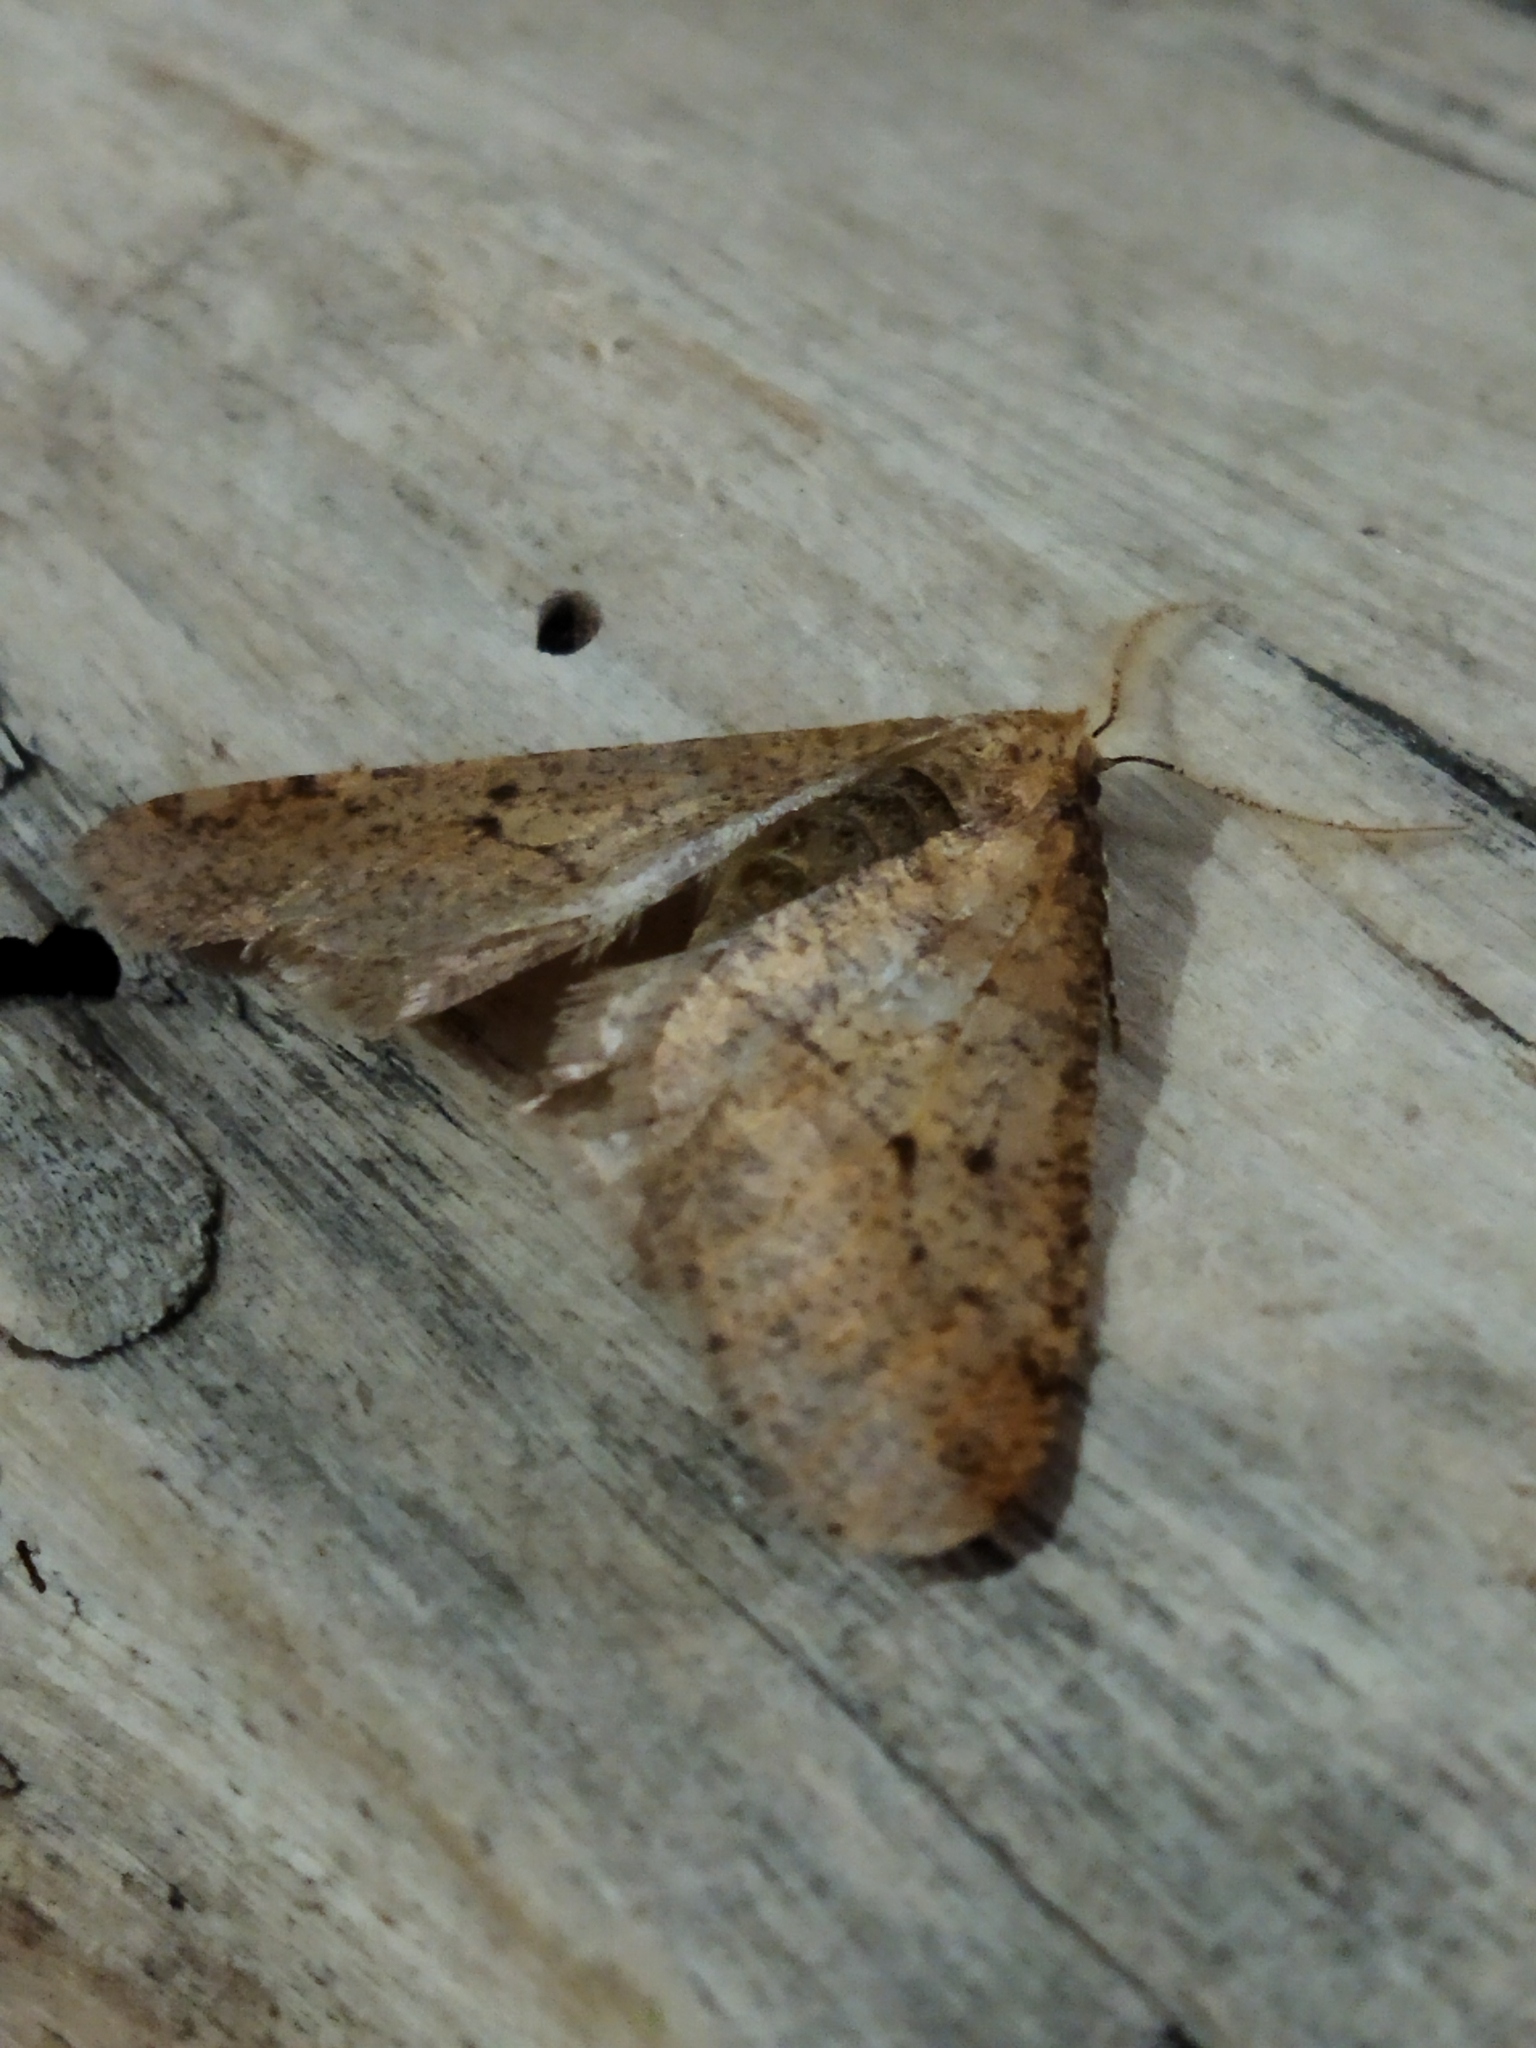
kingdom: Animalia
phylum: Arthropoda
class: Insecta
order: Lepidoptera
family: Geometridae
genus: Erannis
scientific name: Erannis defoliaria
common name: Mottled umber
